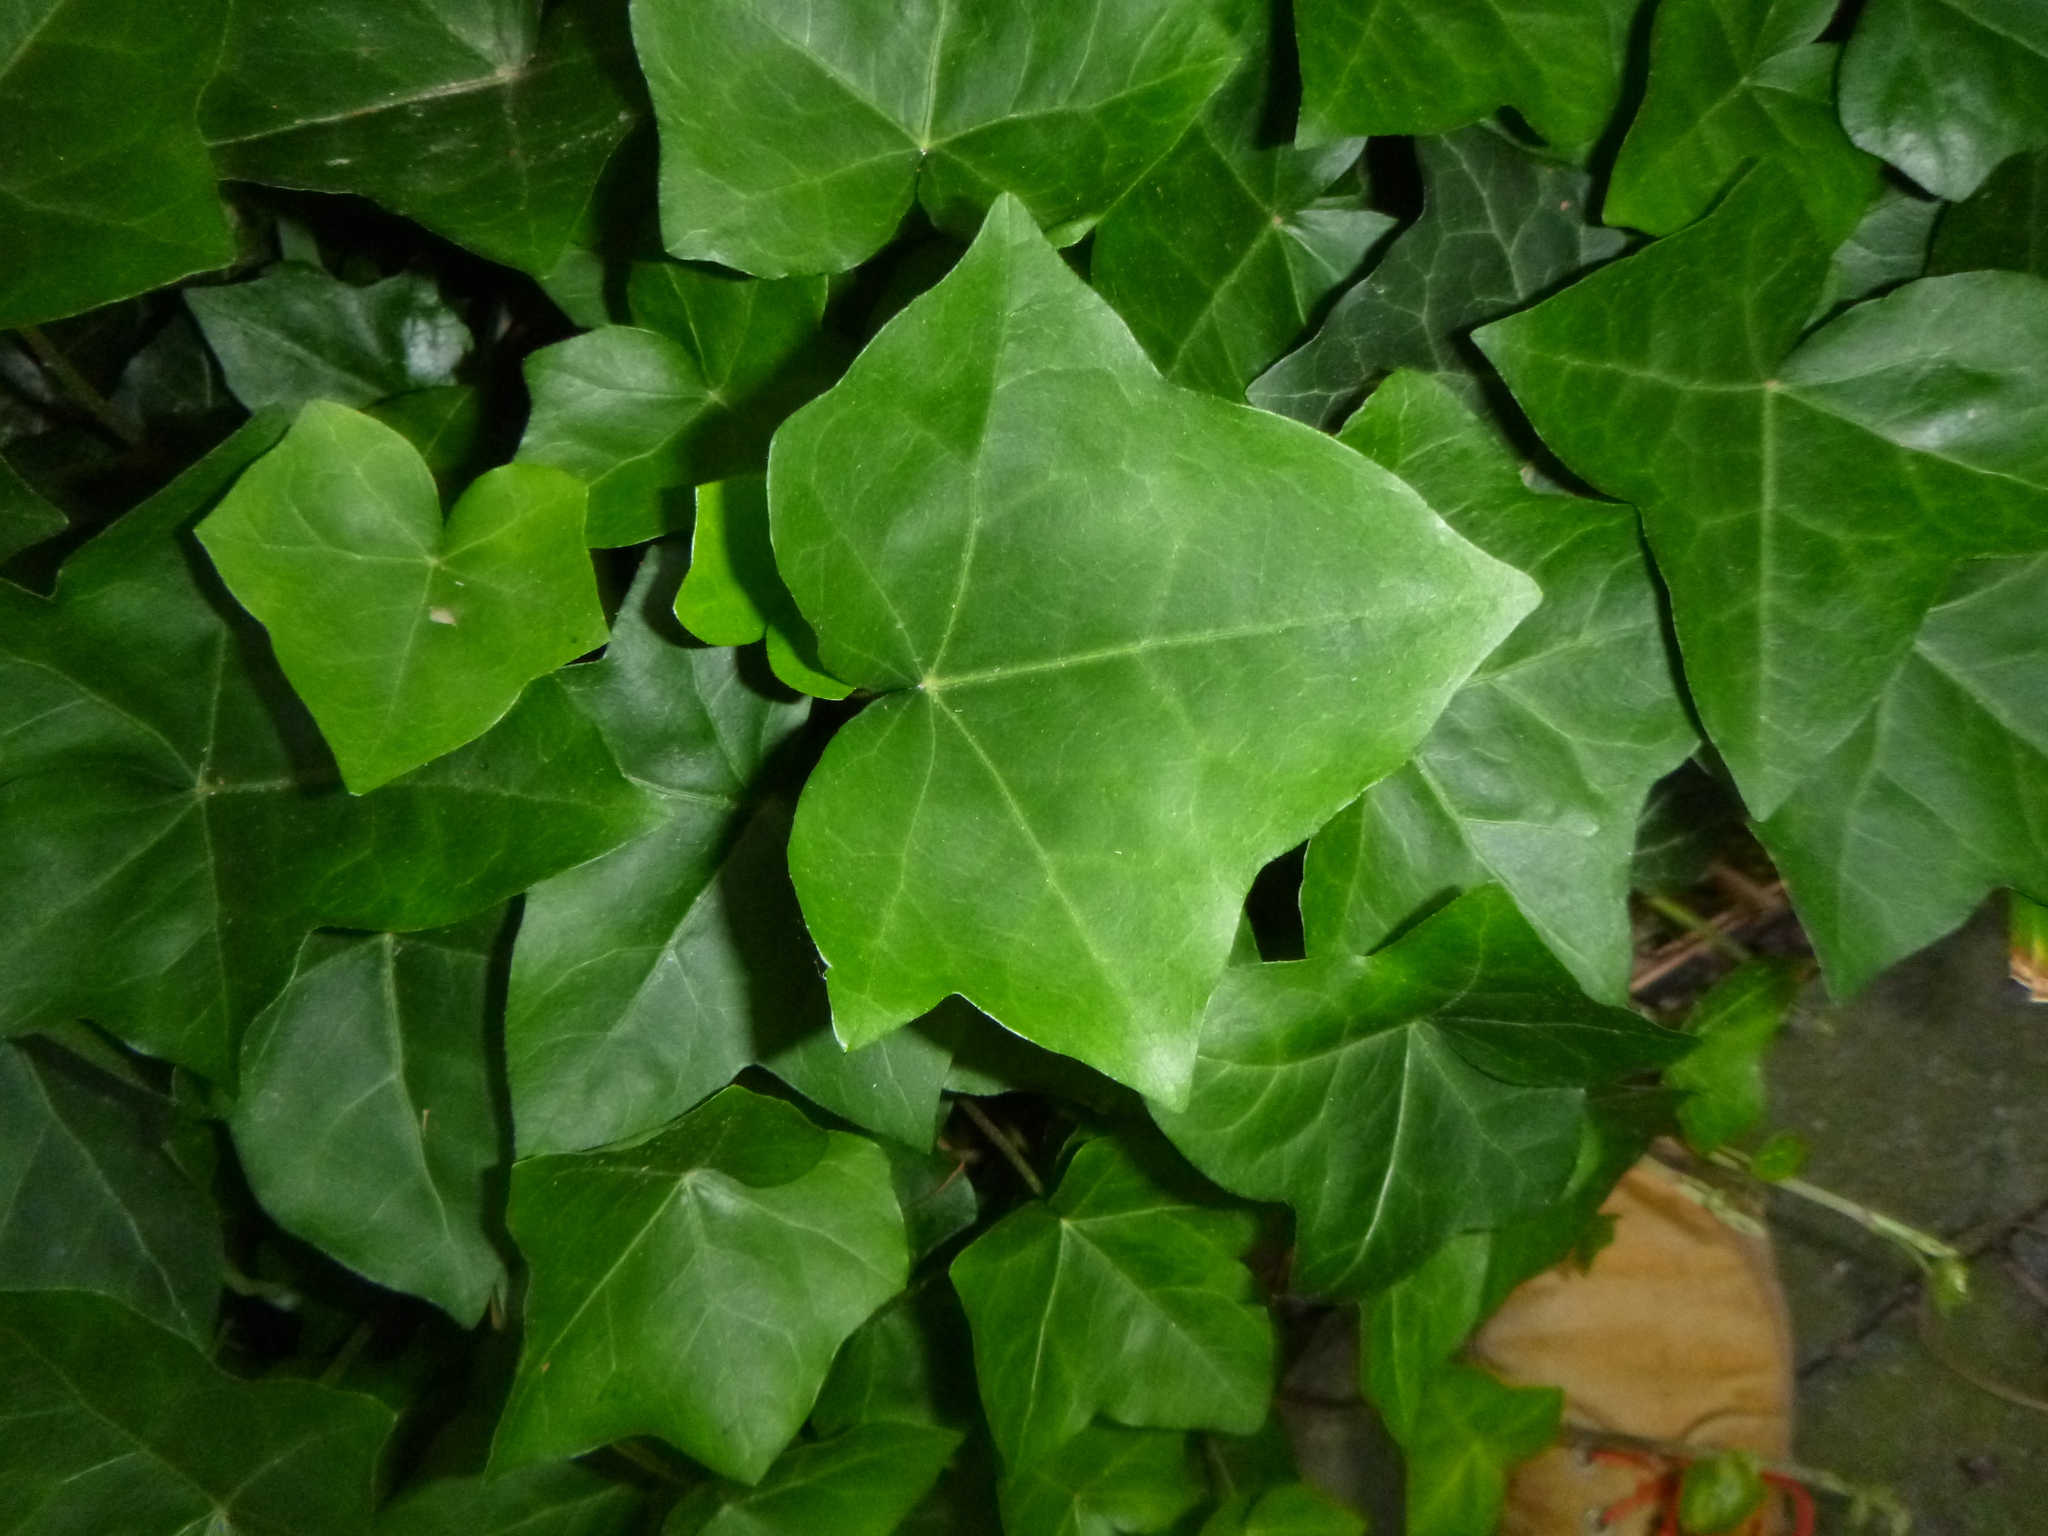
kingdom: Plantae
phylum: Tracheophyta
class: Magnoliopsida
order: Apiales
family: Araliaceae
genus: Hedera
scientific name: Hedera helix
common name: Ivy
